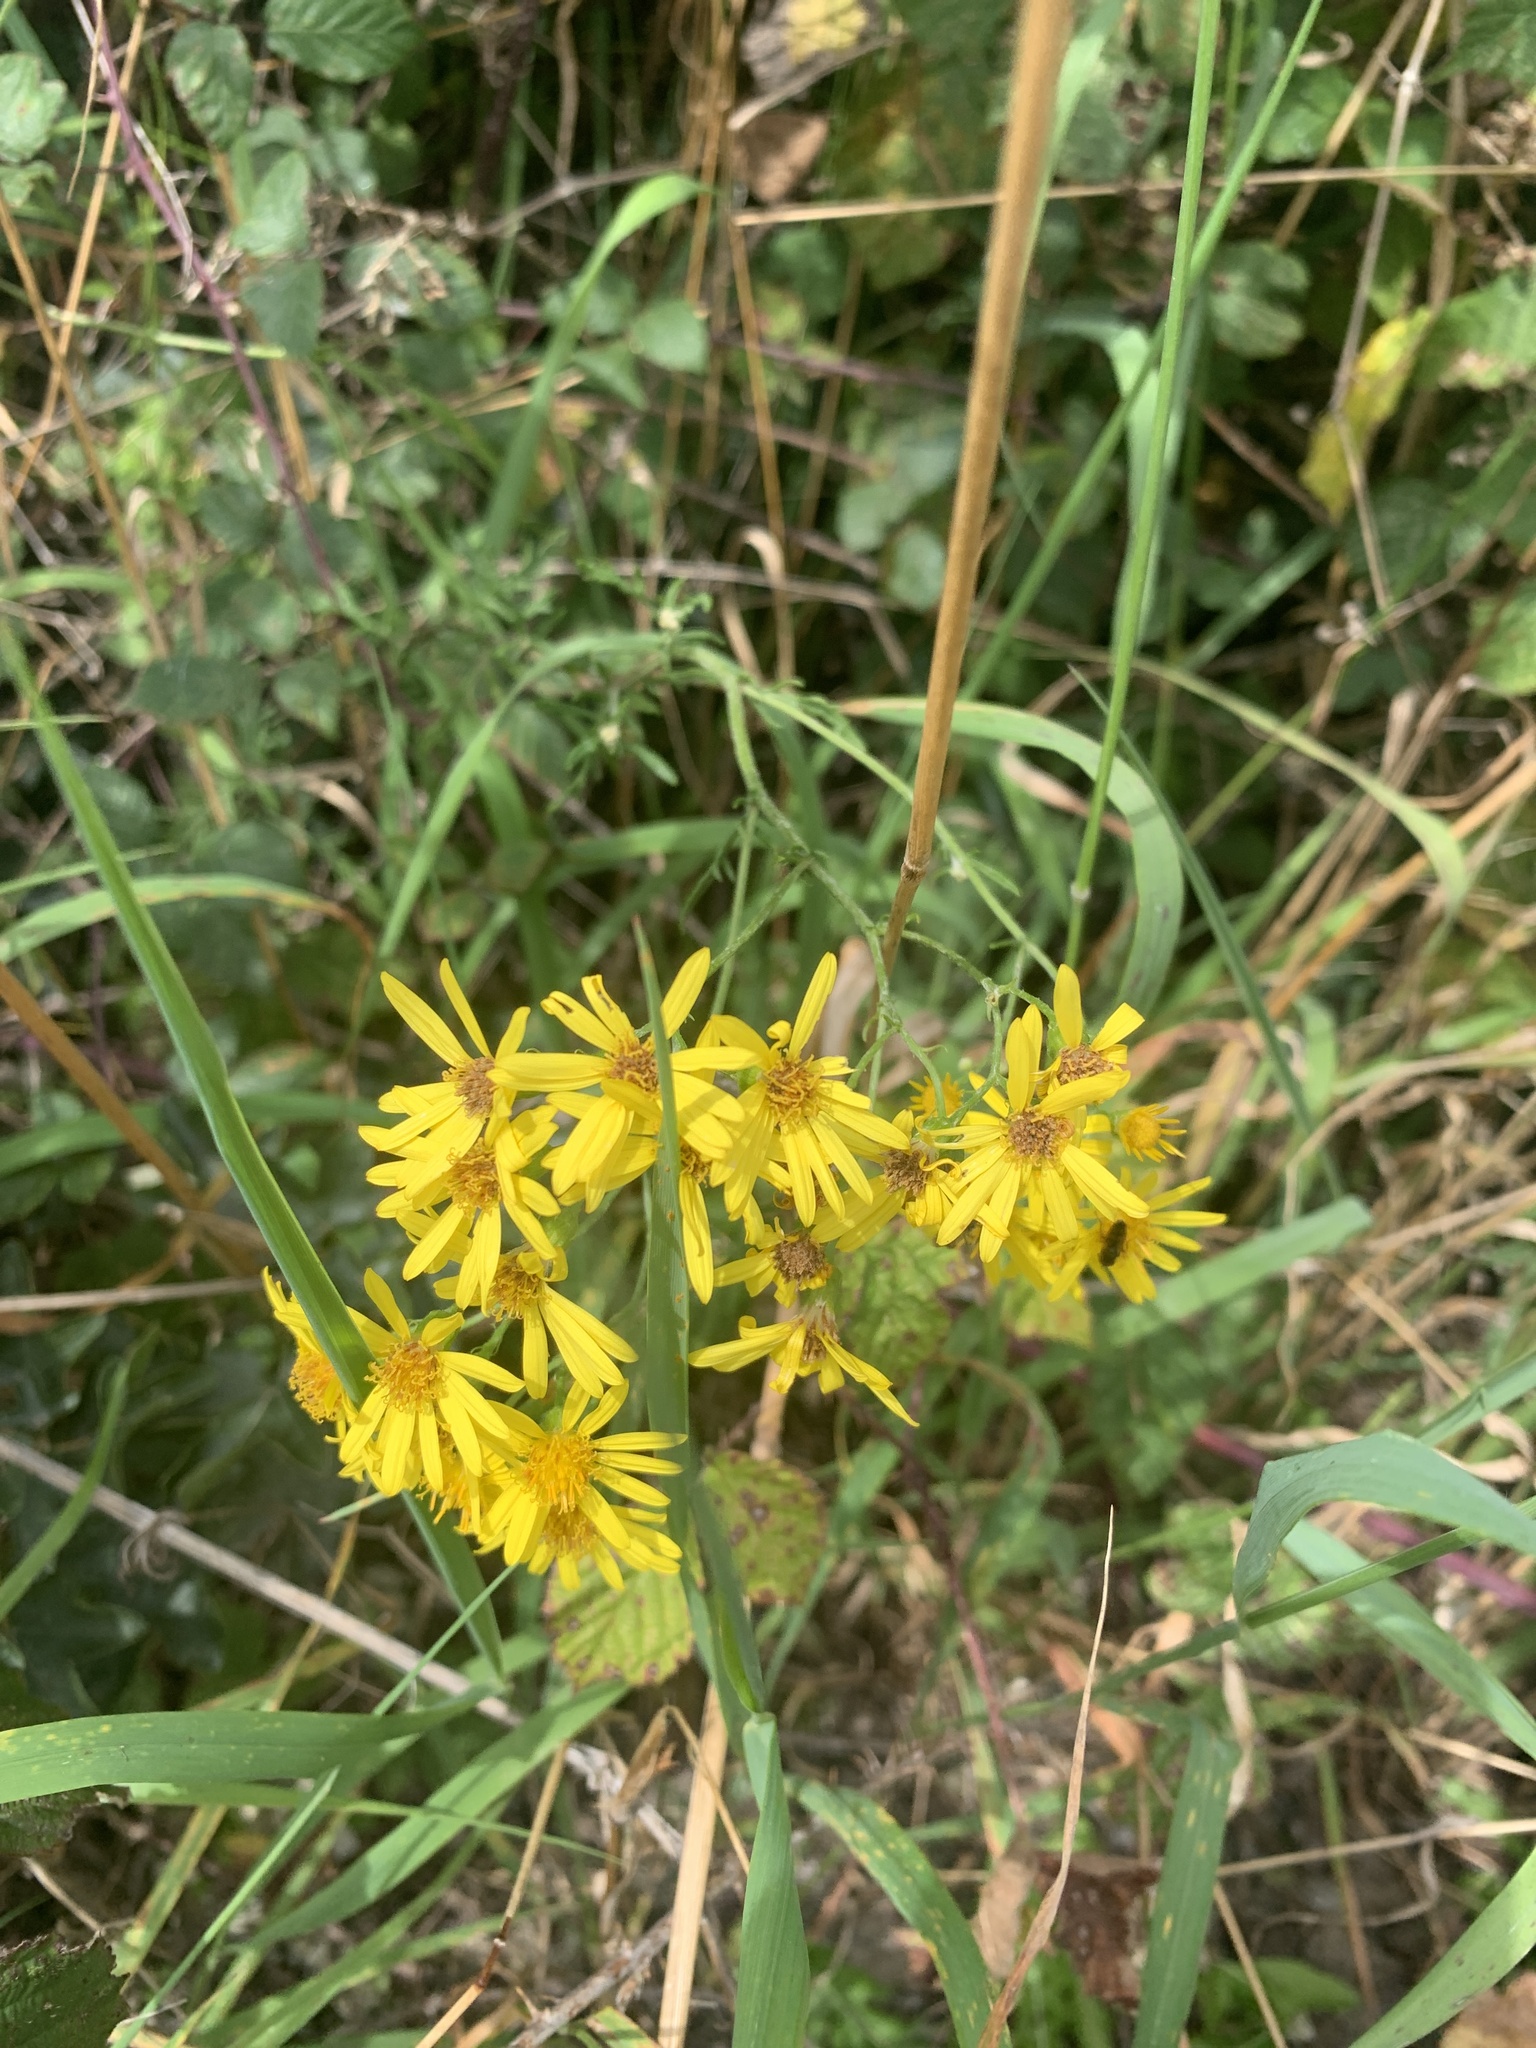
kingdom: Plantae
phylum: Tracheophyta
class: Magnoliopsida
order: Asterales
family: Asteraceae
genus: Jacobaea
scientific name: Jacobaea vulgaris
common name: Stinking willie
